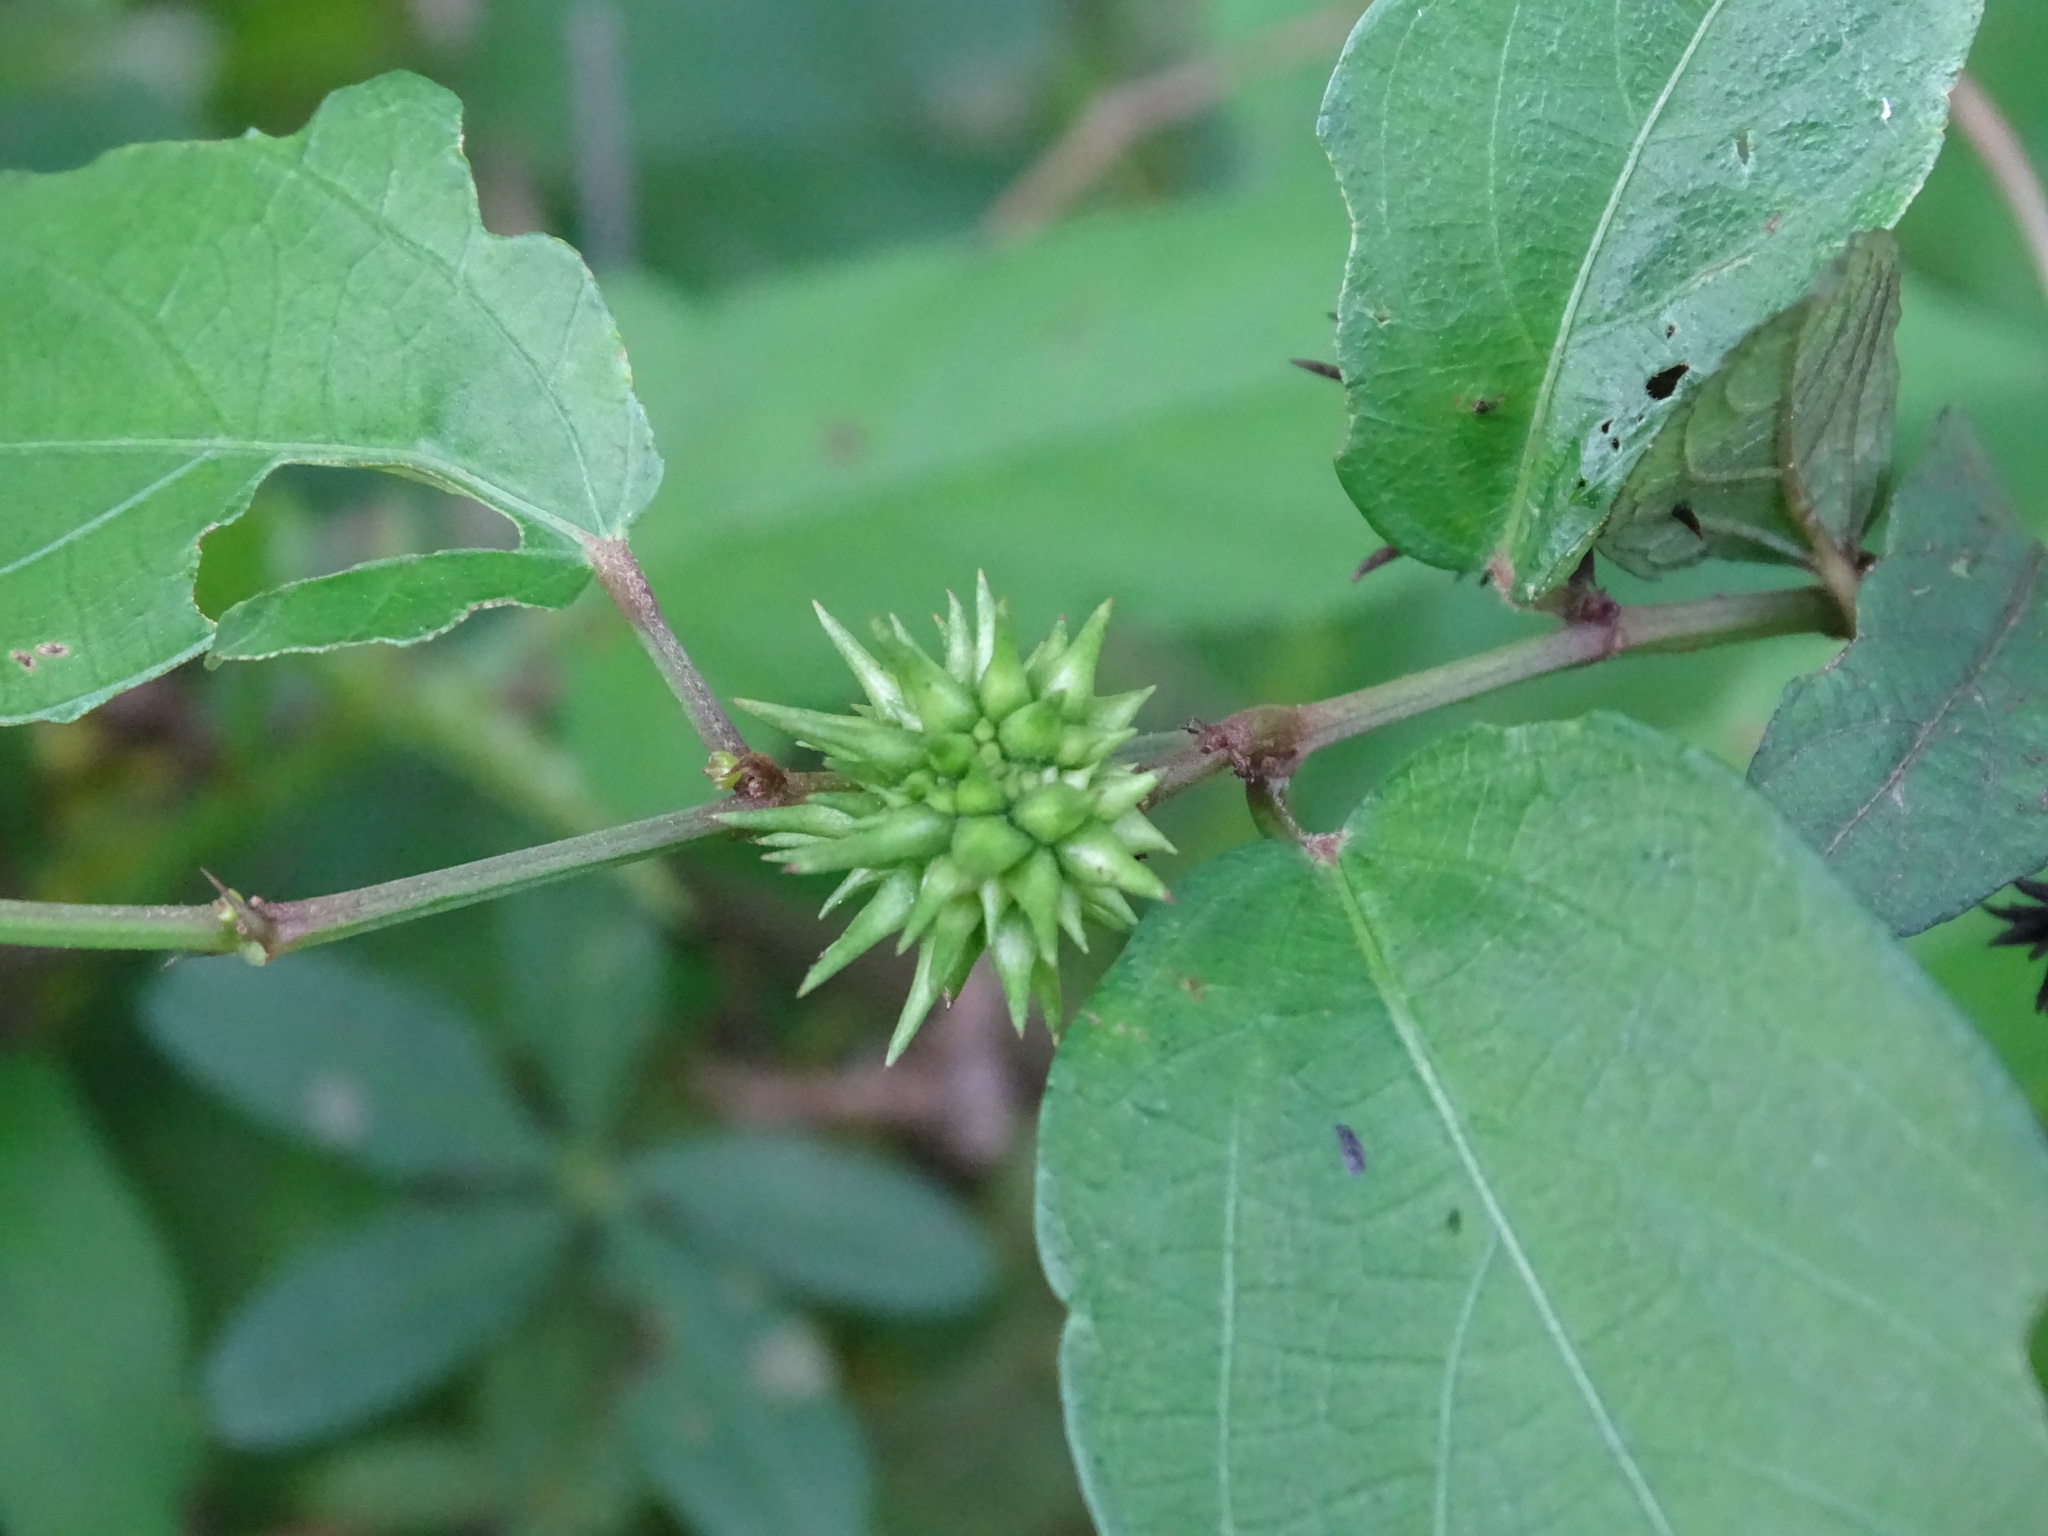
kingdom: Plantae
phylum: Tracheophyta
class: Magnoliopsida
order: Malvales
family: Malvaceae
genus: Byttneria
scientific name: Byttneria aculeata
